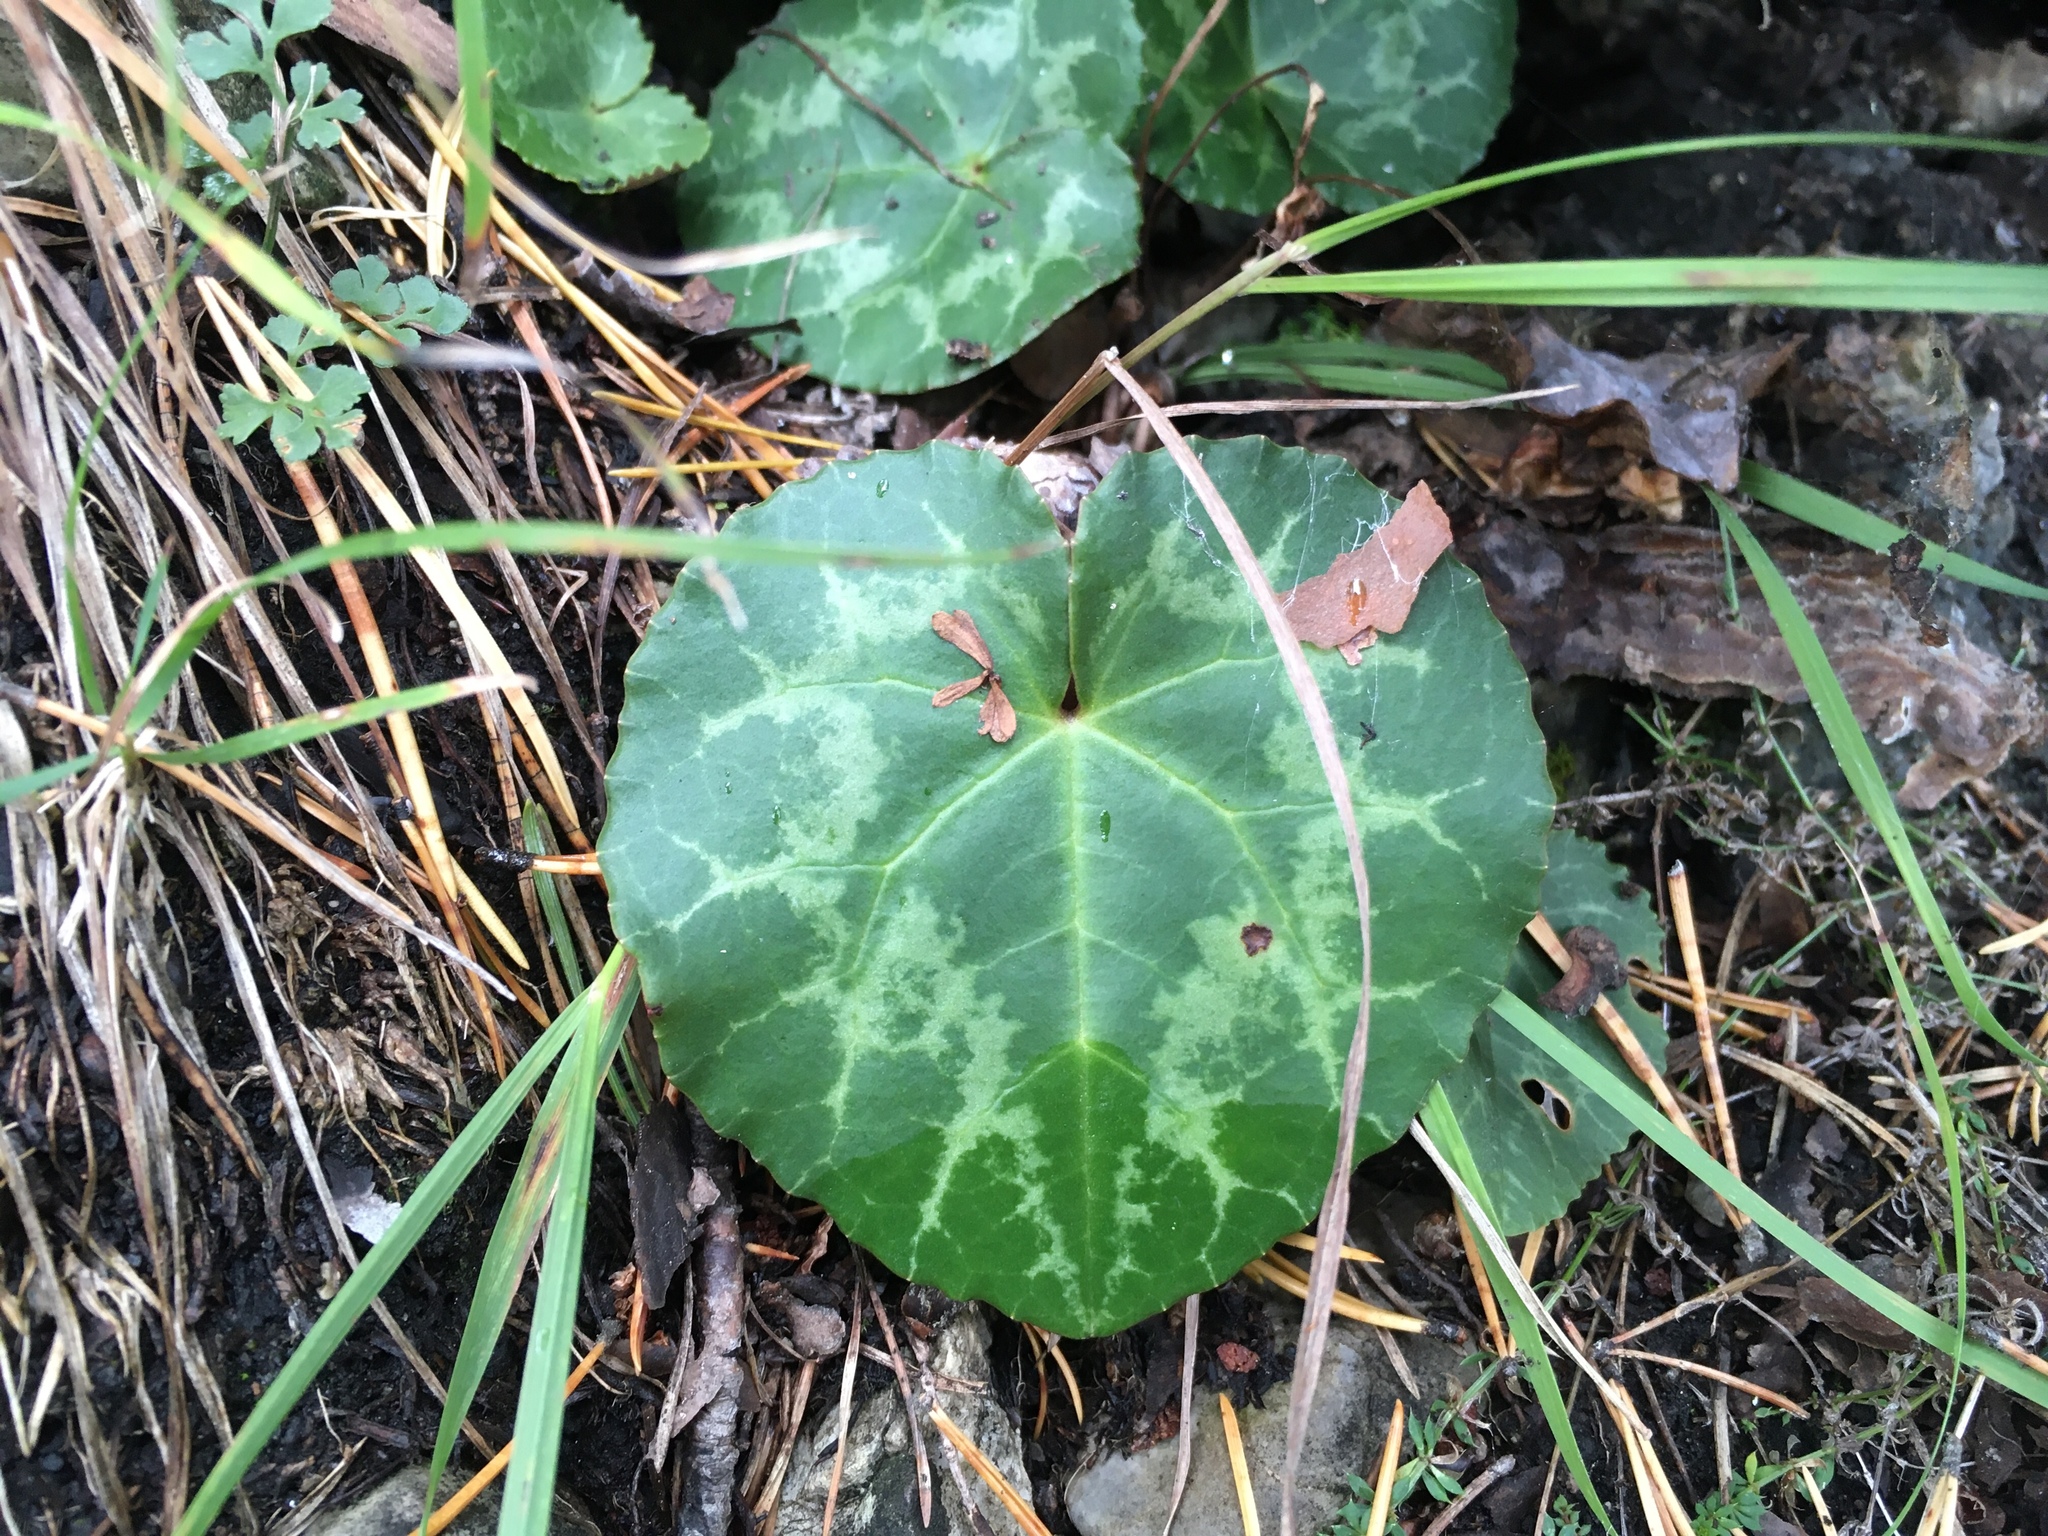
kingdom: Plantae
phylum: Tracheophyta
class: Magnoliopsida
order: Ericales
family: Primulaceae
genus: Cyclamen
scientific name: Cyclamen purpurascens
